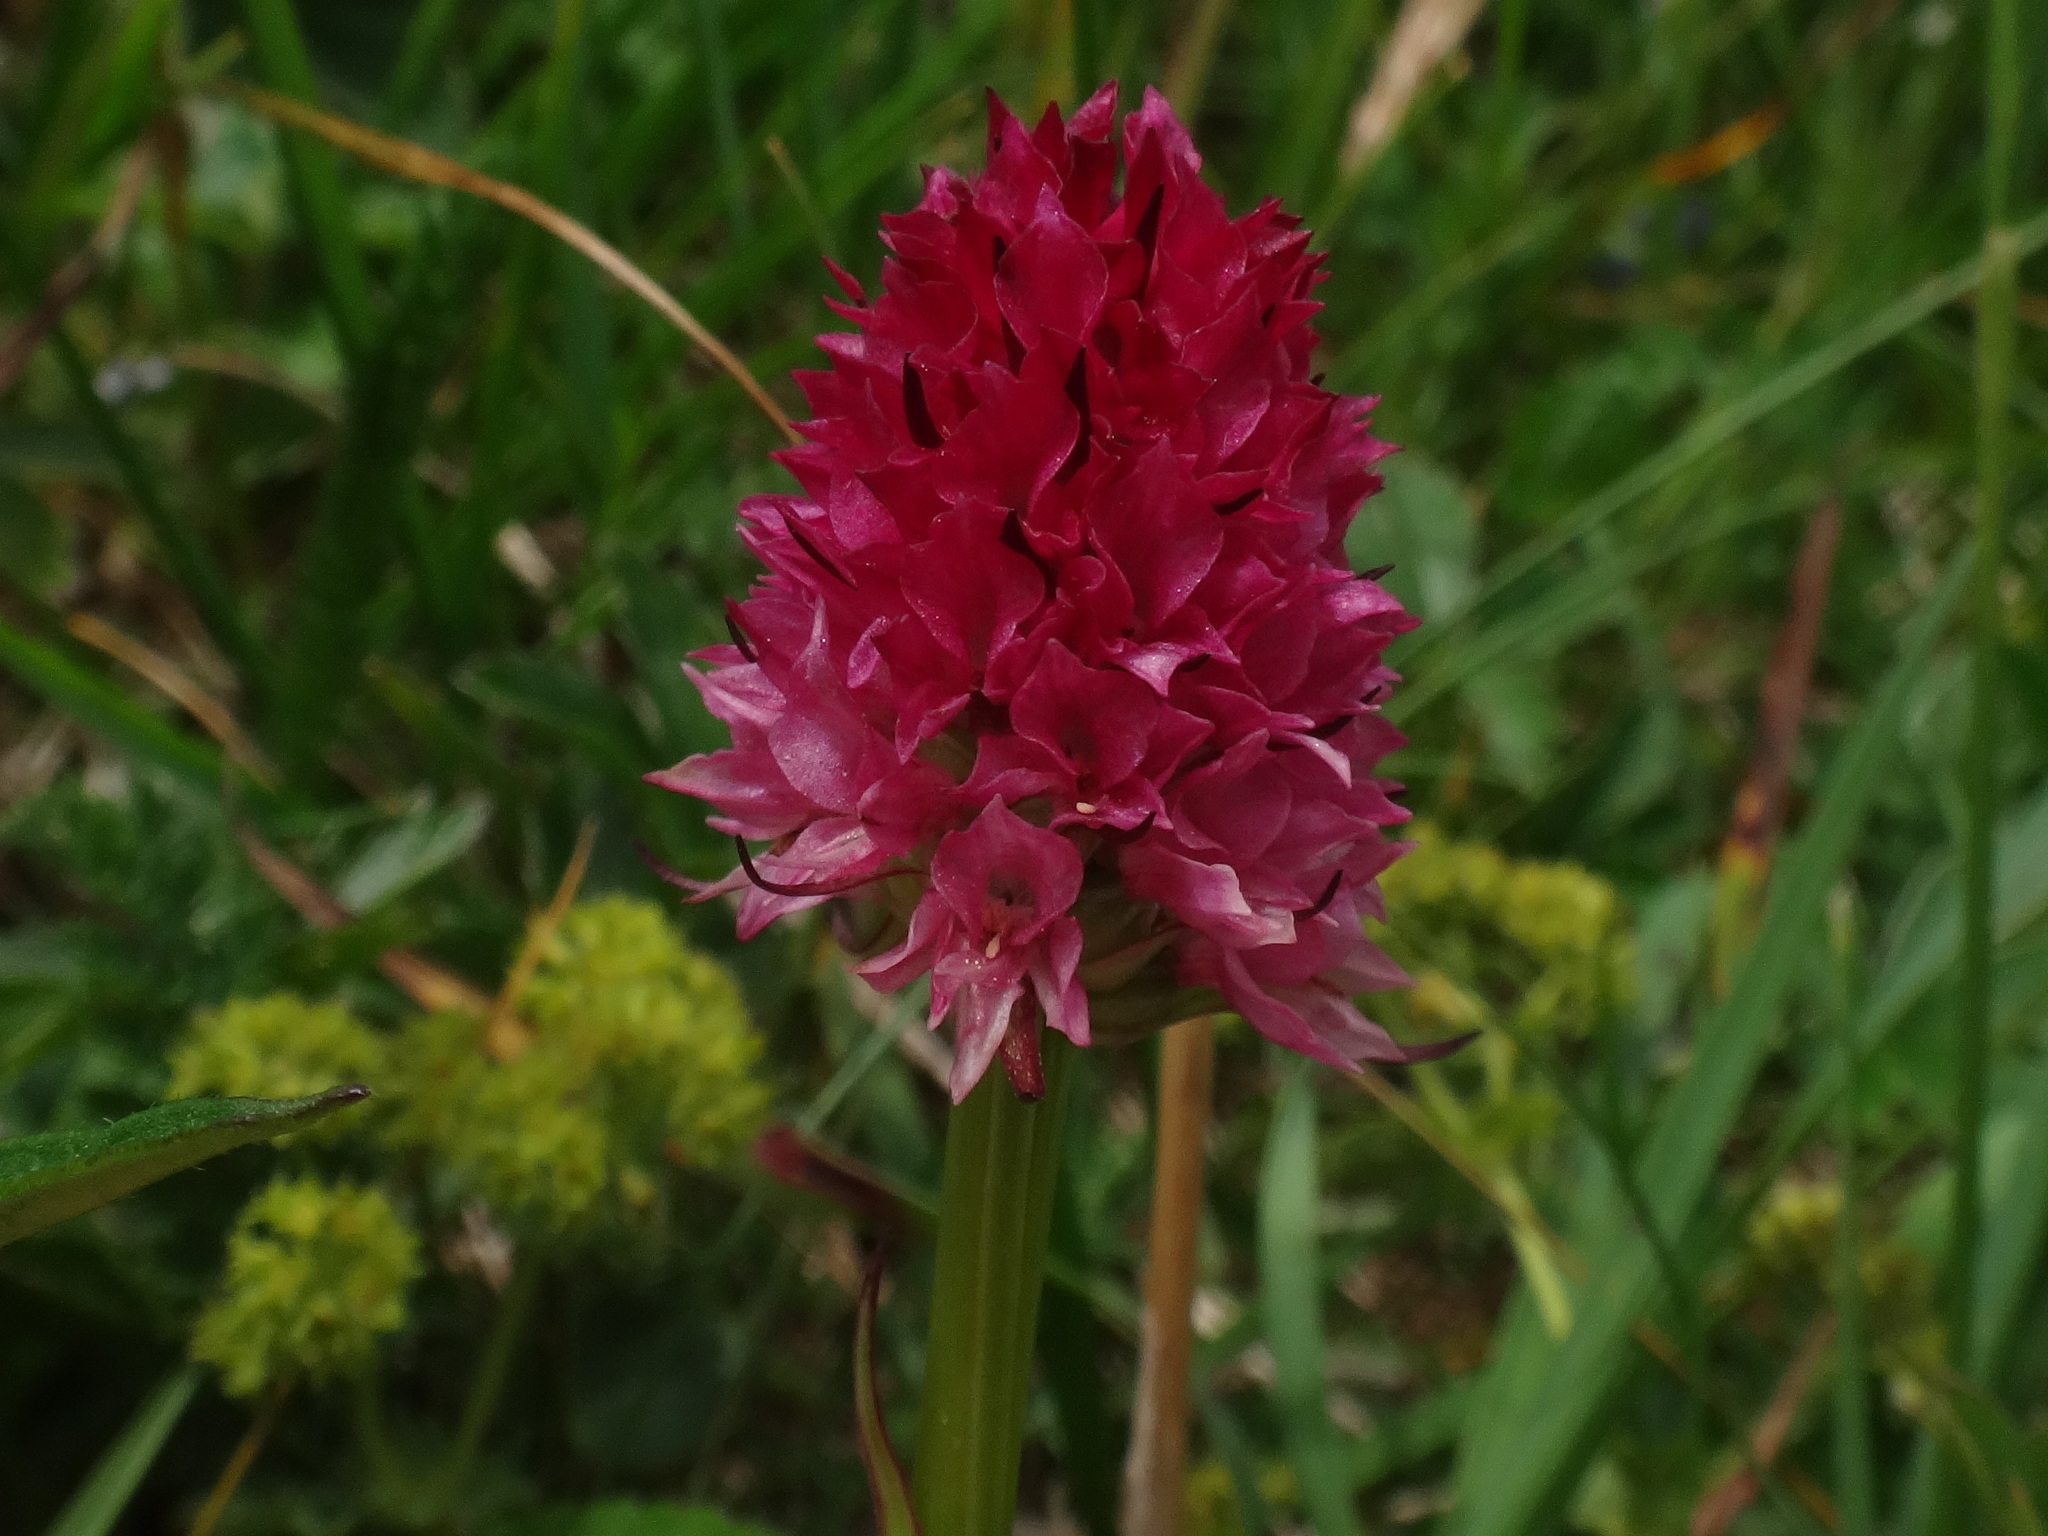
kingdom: Plantae
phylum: Tracheophyta
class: Liliopsida
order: Asparagales
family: Orchidaceae
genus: Gymnadenia
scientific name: Gymnadenia bicolor
